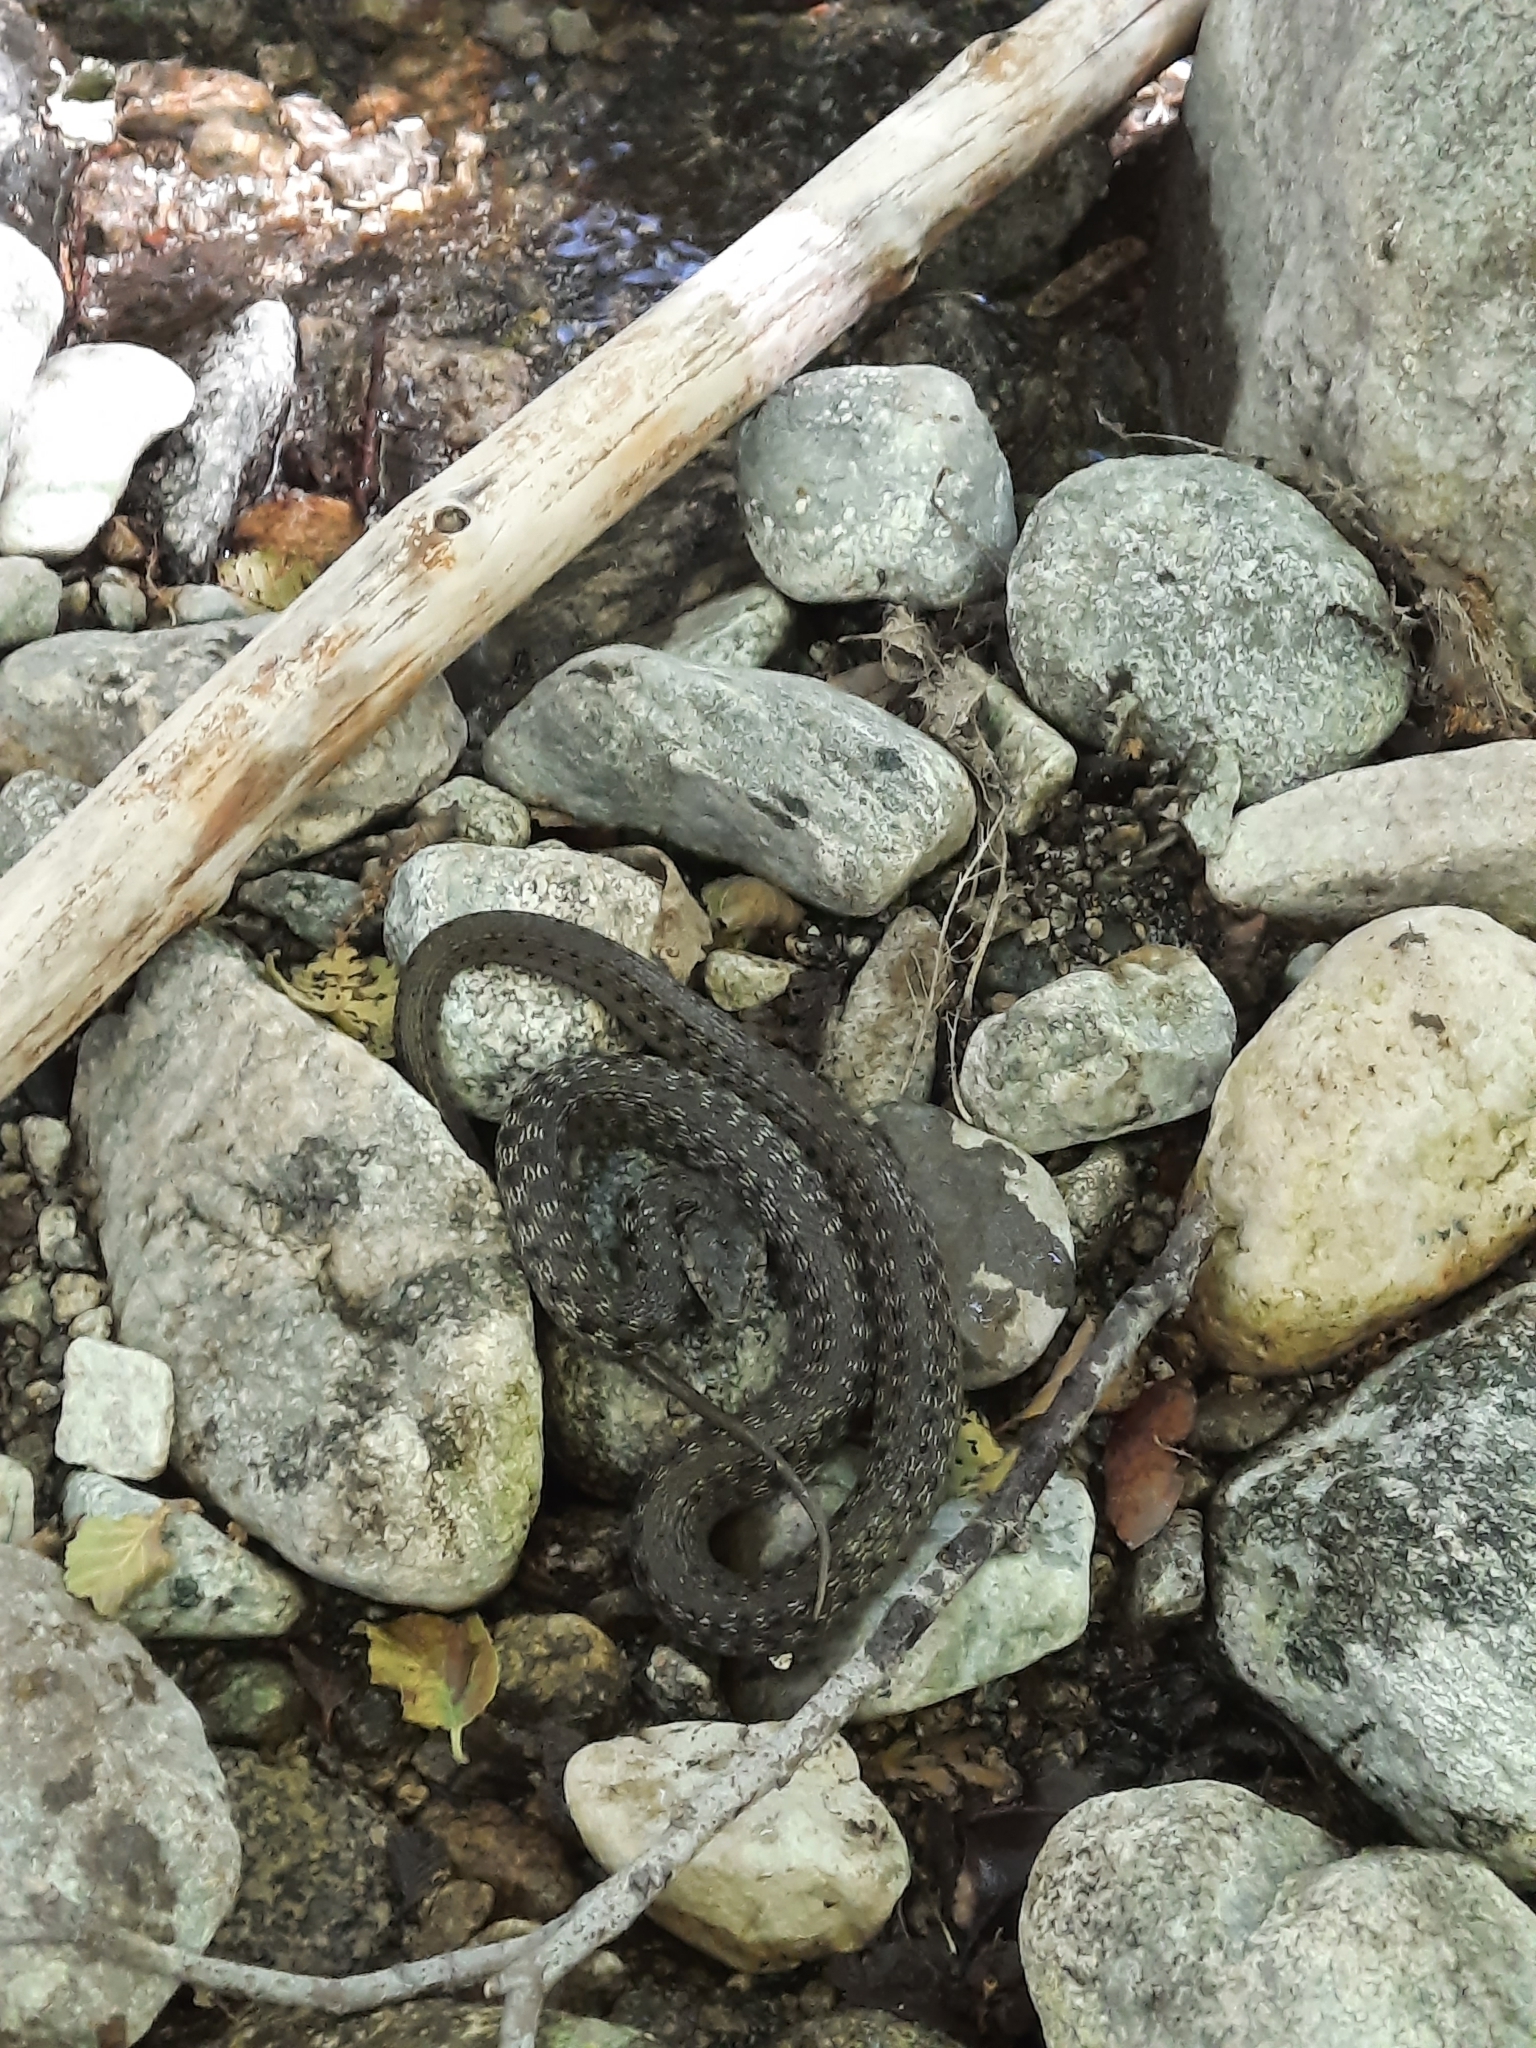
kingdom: Animalia
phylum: Chordata
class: Squamata
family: Colubridae
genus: Thamnophis
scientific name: Thamnophis hammondii
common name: Two-striped garter snake
